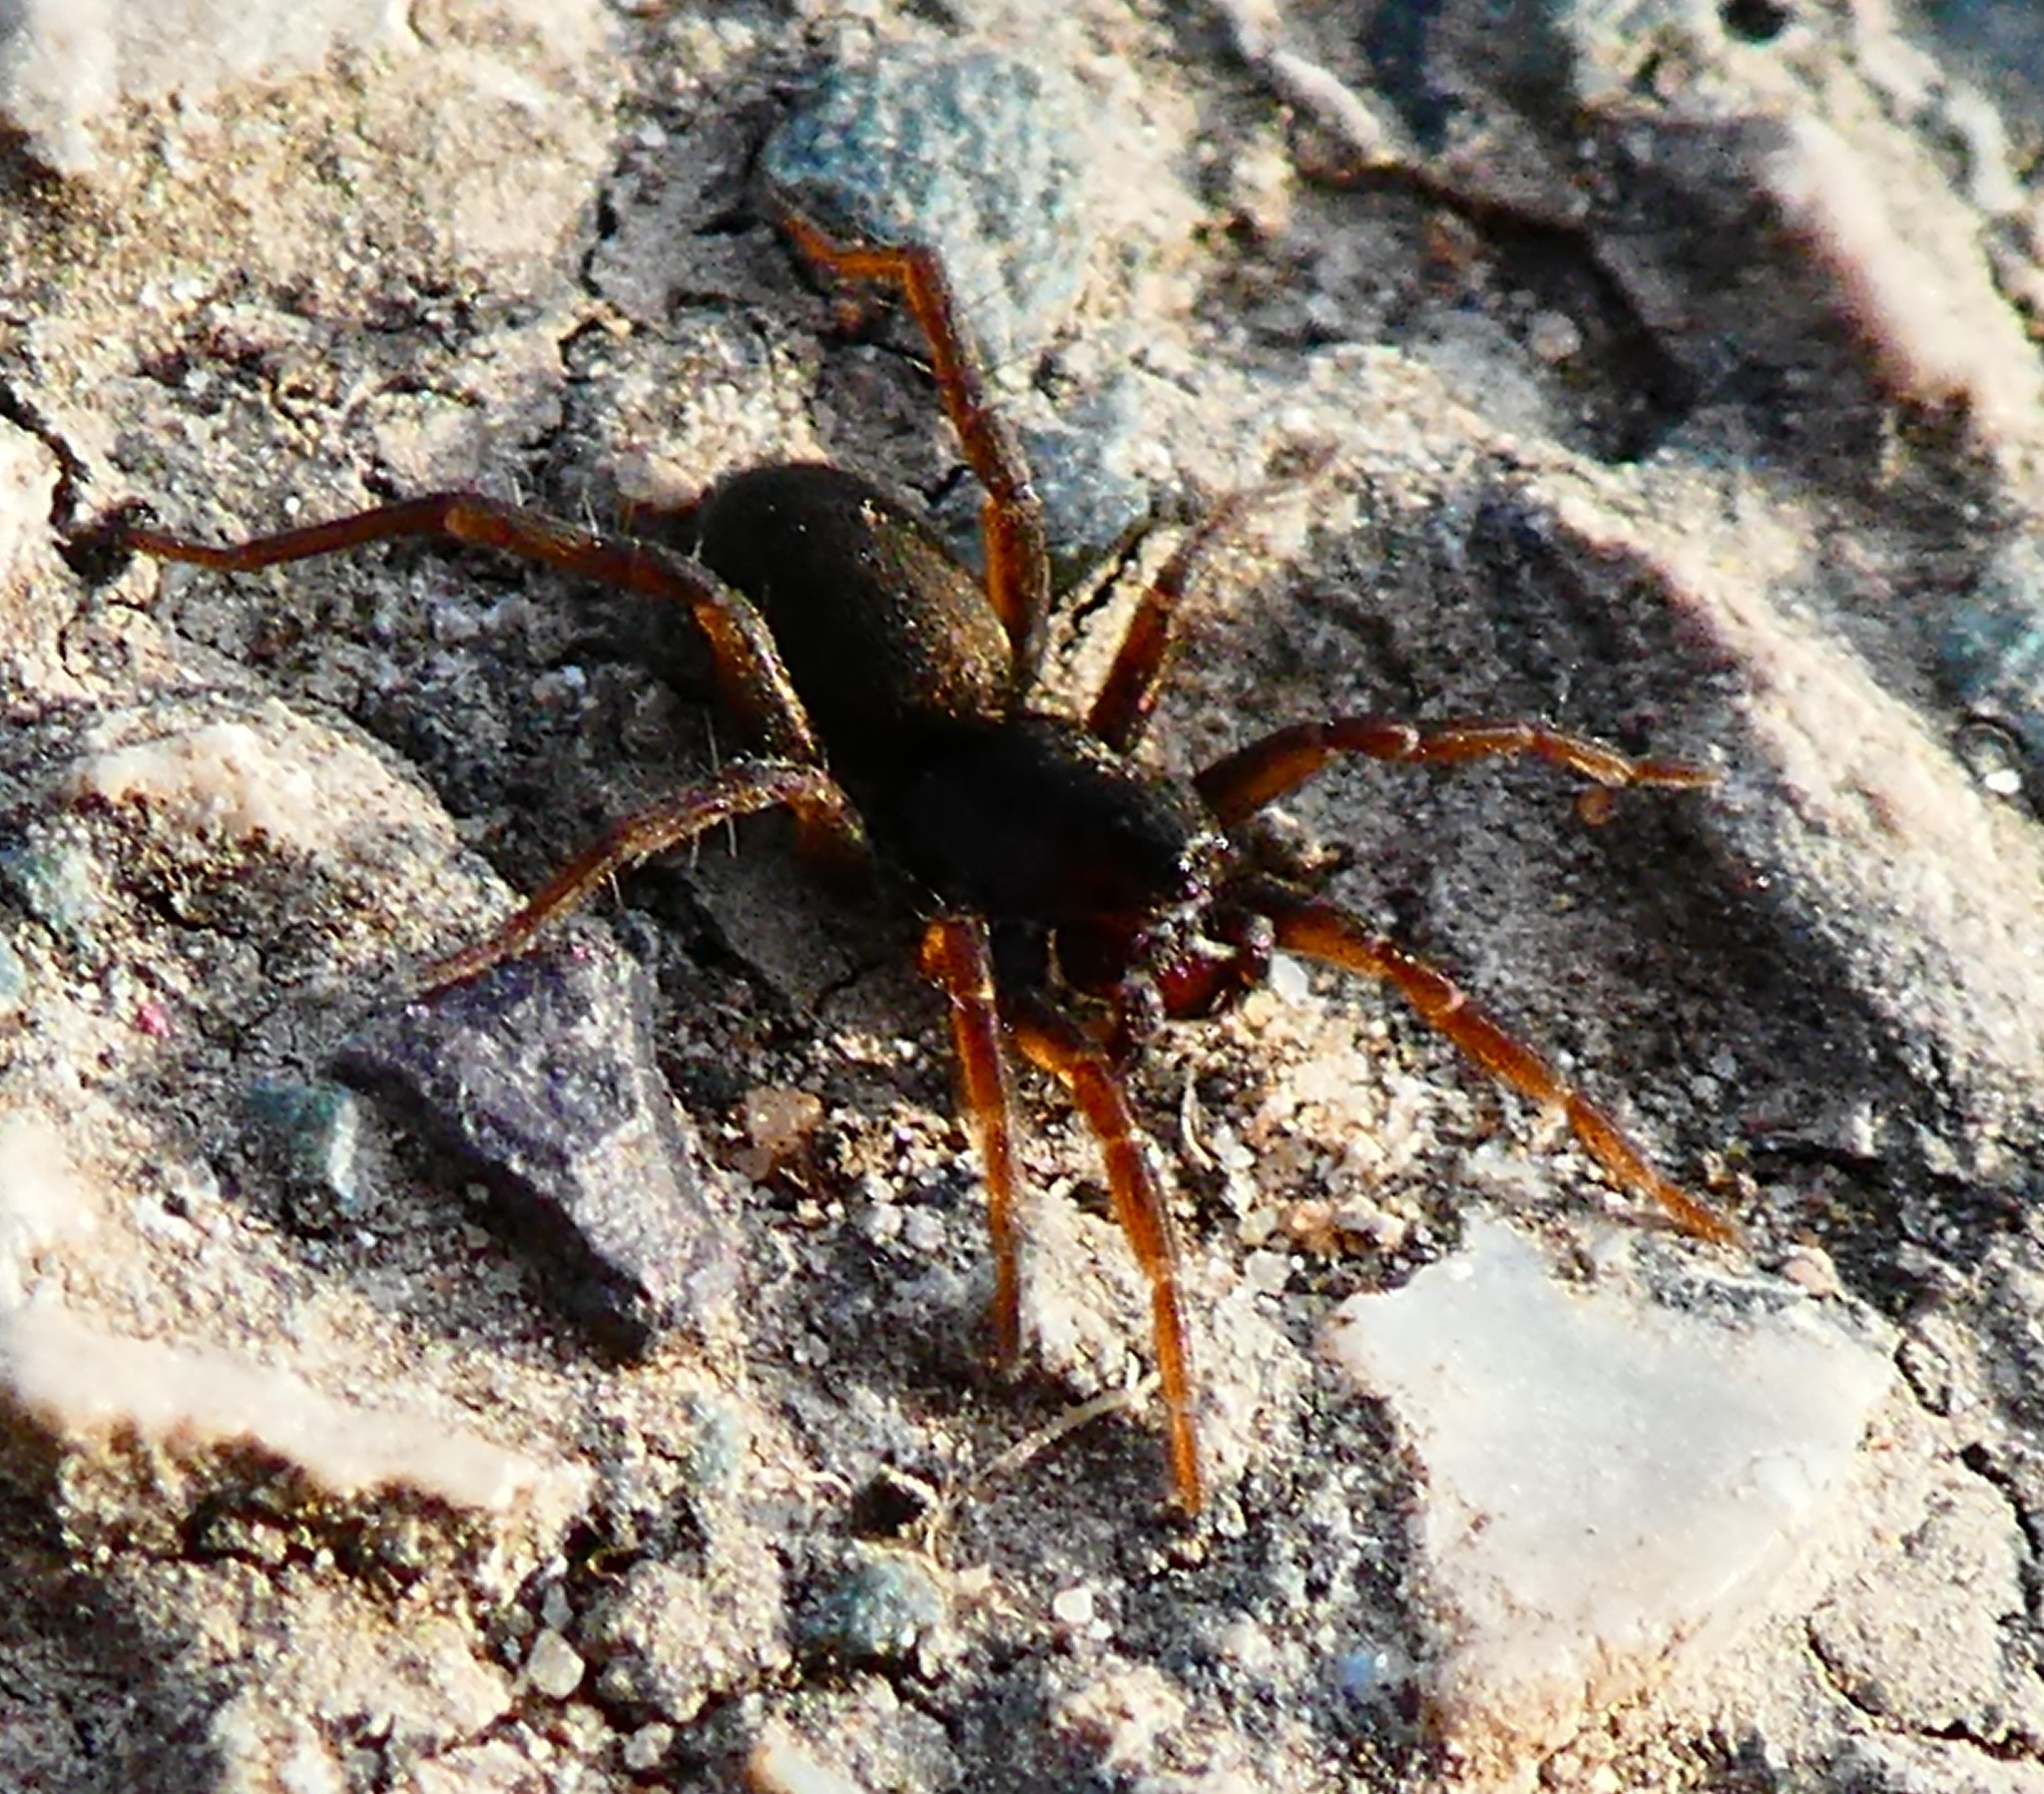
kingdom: Animalia
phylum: Arthropoda
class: Arachnida
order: Araneae
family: Lycosidae
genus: Aulonia
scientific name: Aulonia albimana
